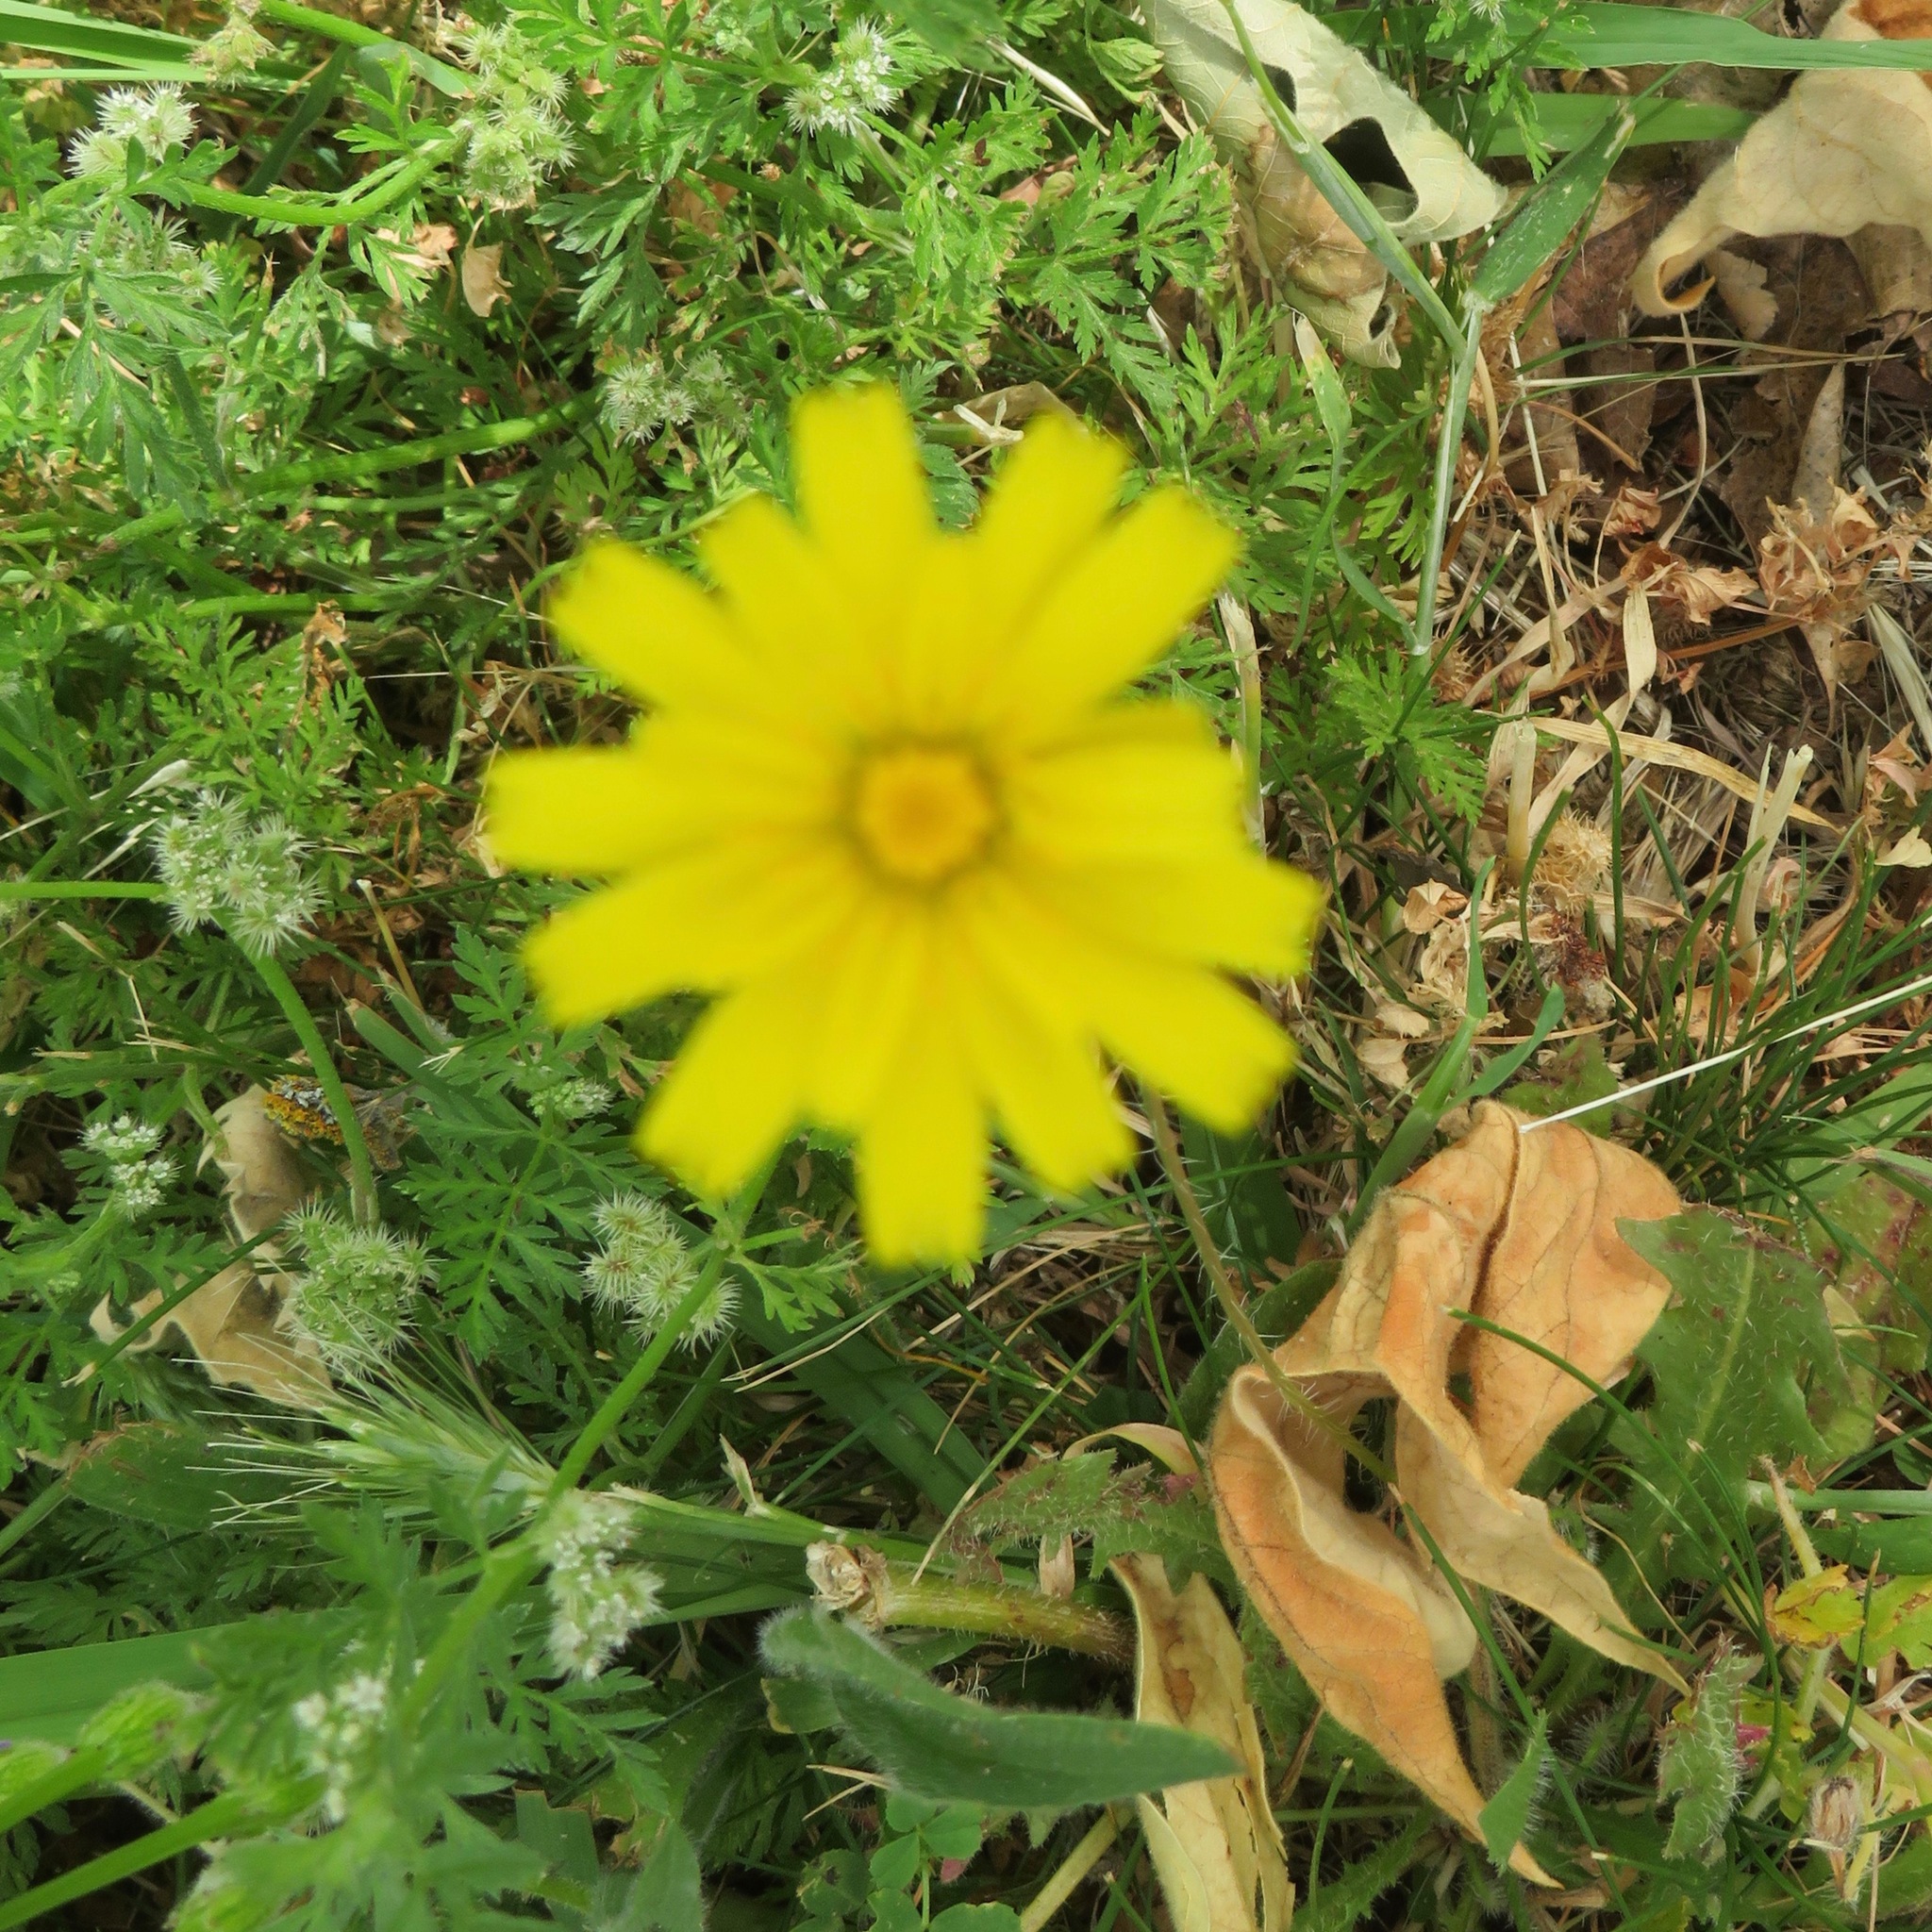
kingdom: Plantae
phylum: Tracheophyta
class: Magnoliopsida
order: Asterales
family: Asteraceae
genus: Hypochaeris
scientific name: Hypochaeris radicata
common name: Flatweed
